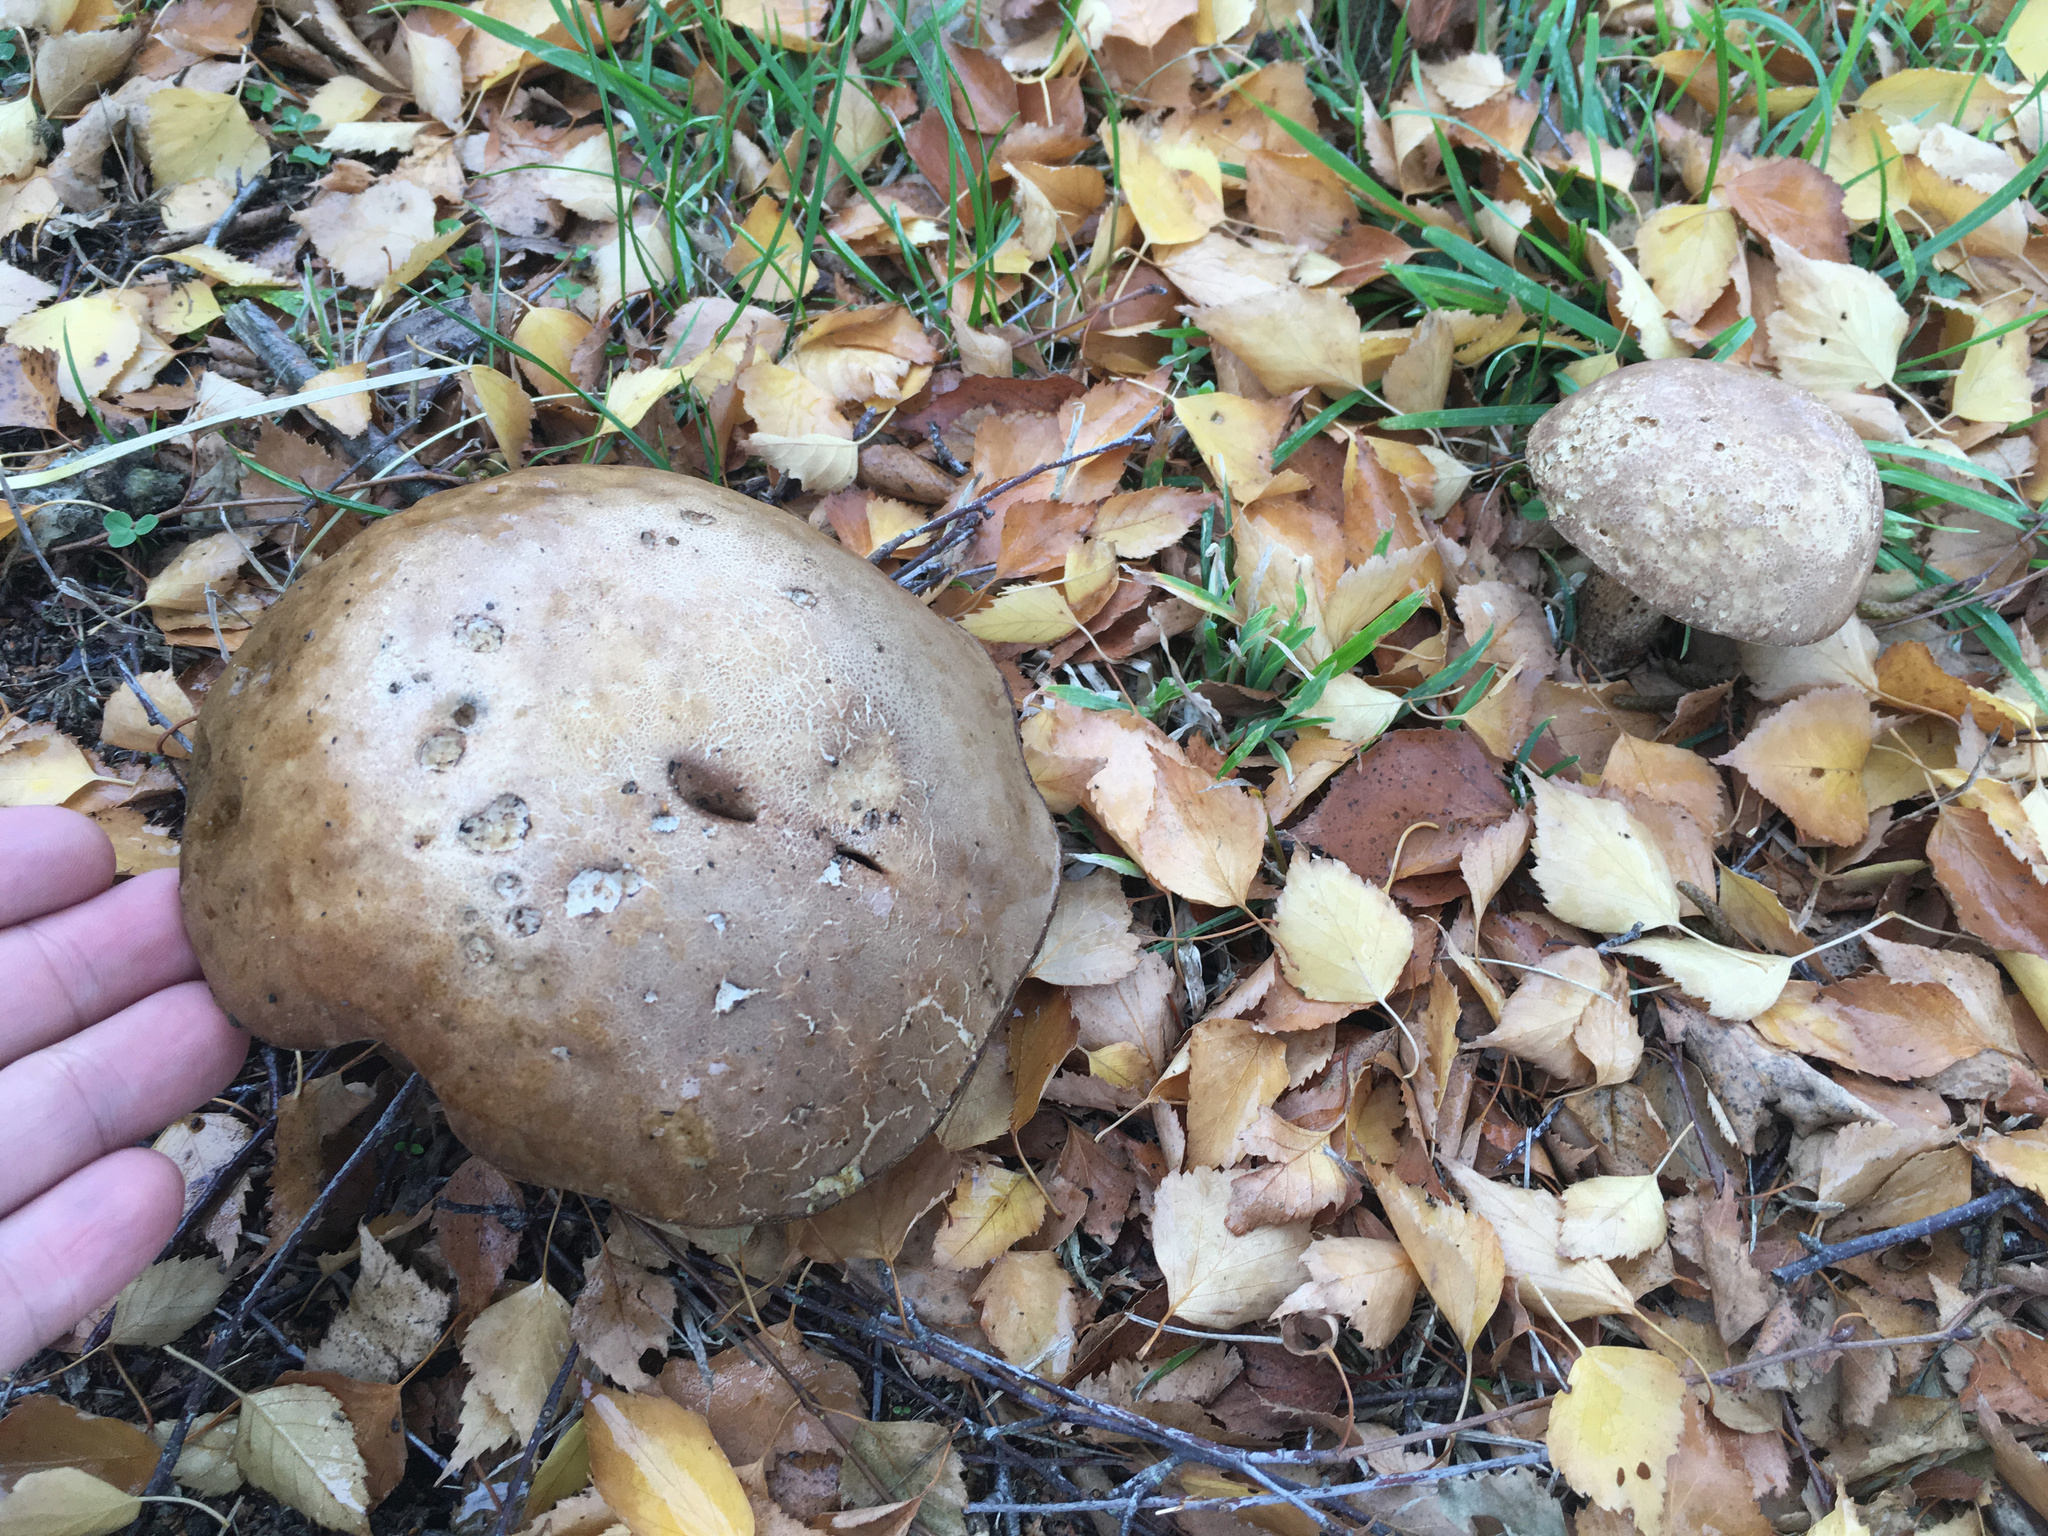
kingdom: Fungi
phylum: Basidiomycota
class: Agaricomycetes
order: Boletales
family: Boletaceae
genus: Leccinum
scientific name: Leccinum scabrum
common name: Blushing bolete
